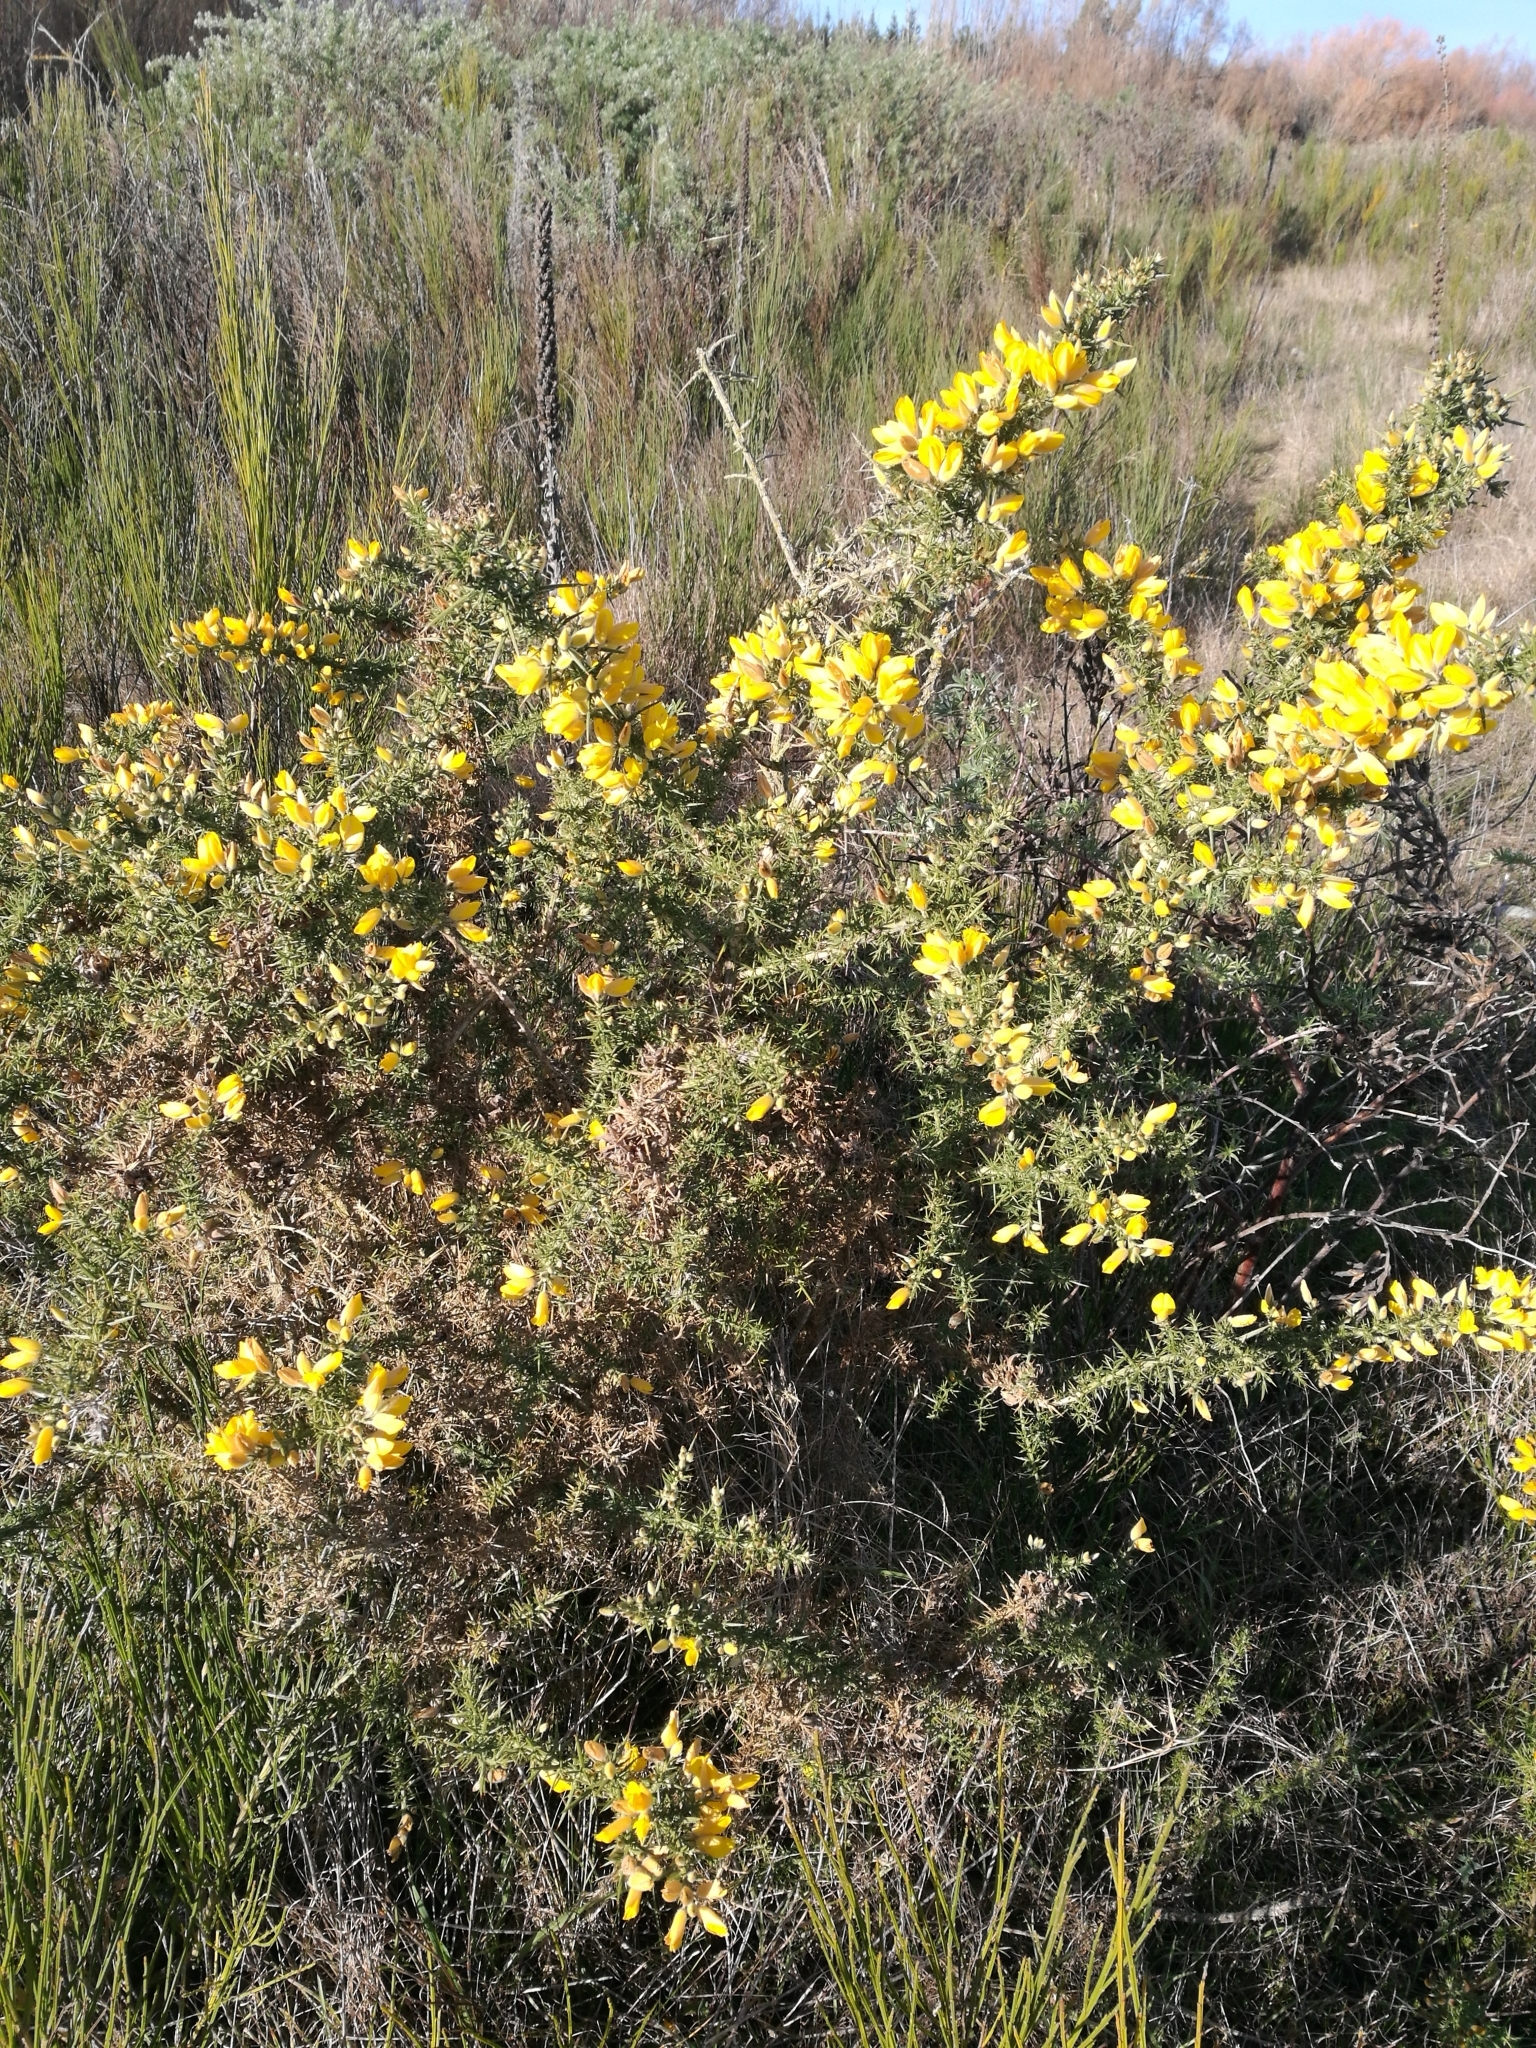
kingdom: Plantae
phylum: Tracheophyta
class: Magnoliopsida
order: Fabales
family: Fabaceae
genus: Ulex
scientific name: Ulex europaeus
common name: Common gorse
